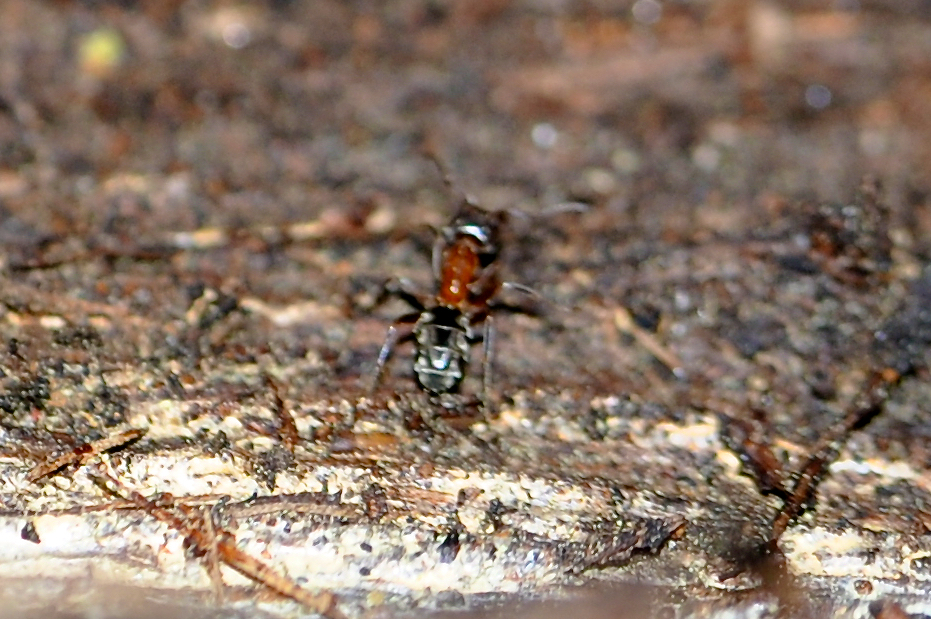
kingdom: Animalia
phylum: Arthropoda
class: Insecta
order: Hymenoptera
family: Formicidae
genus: Liometopum
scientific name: Liometopum occidentale
